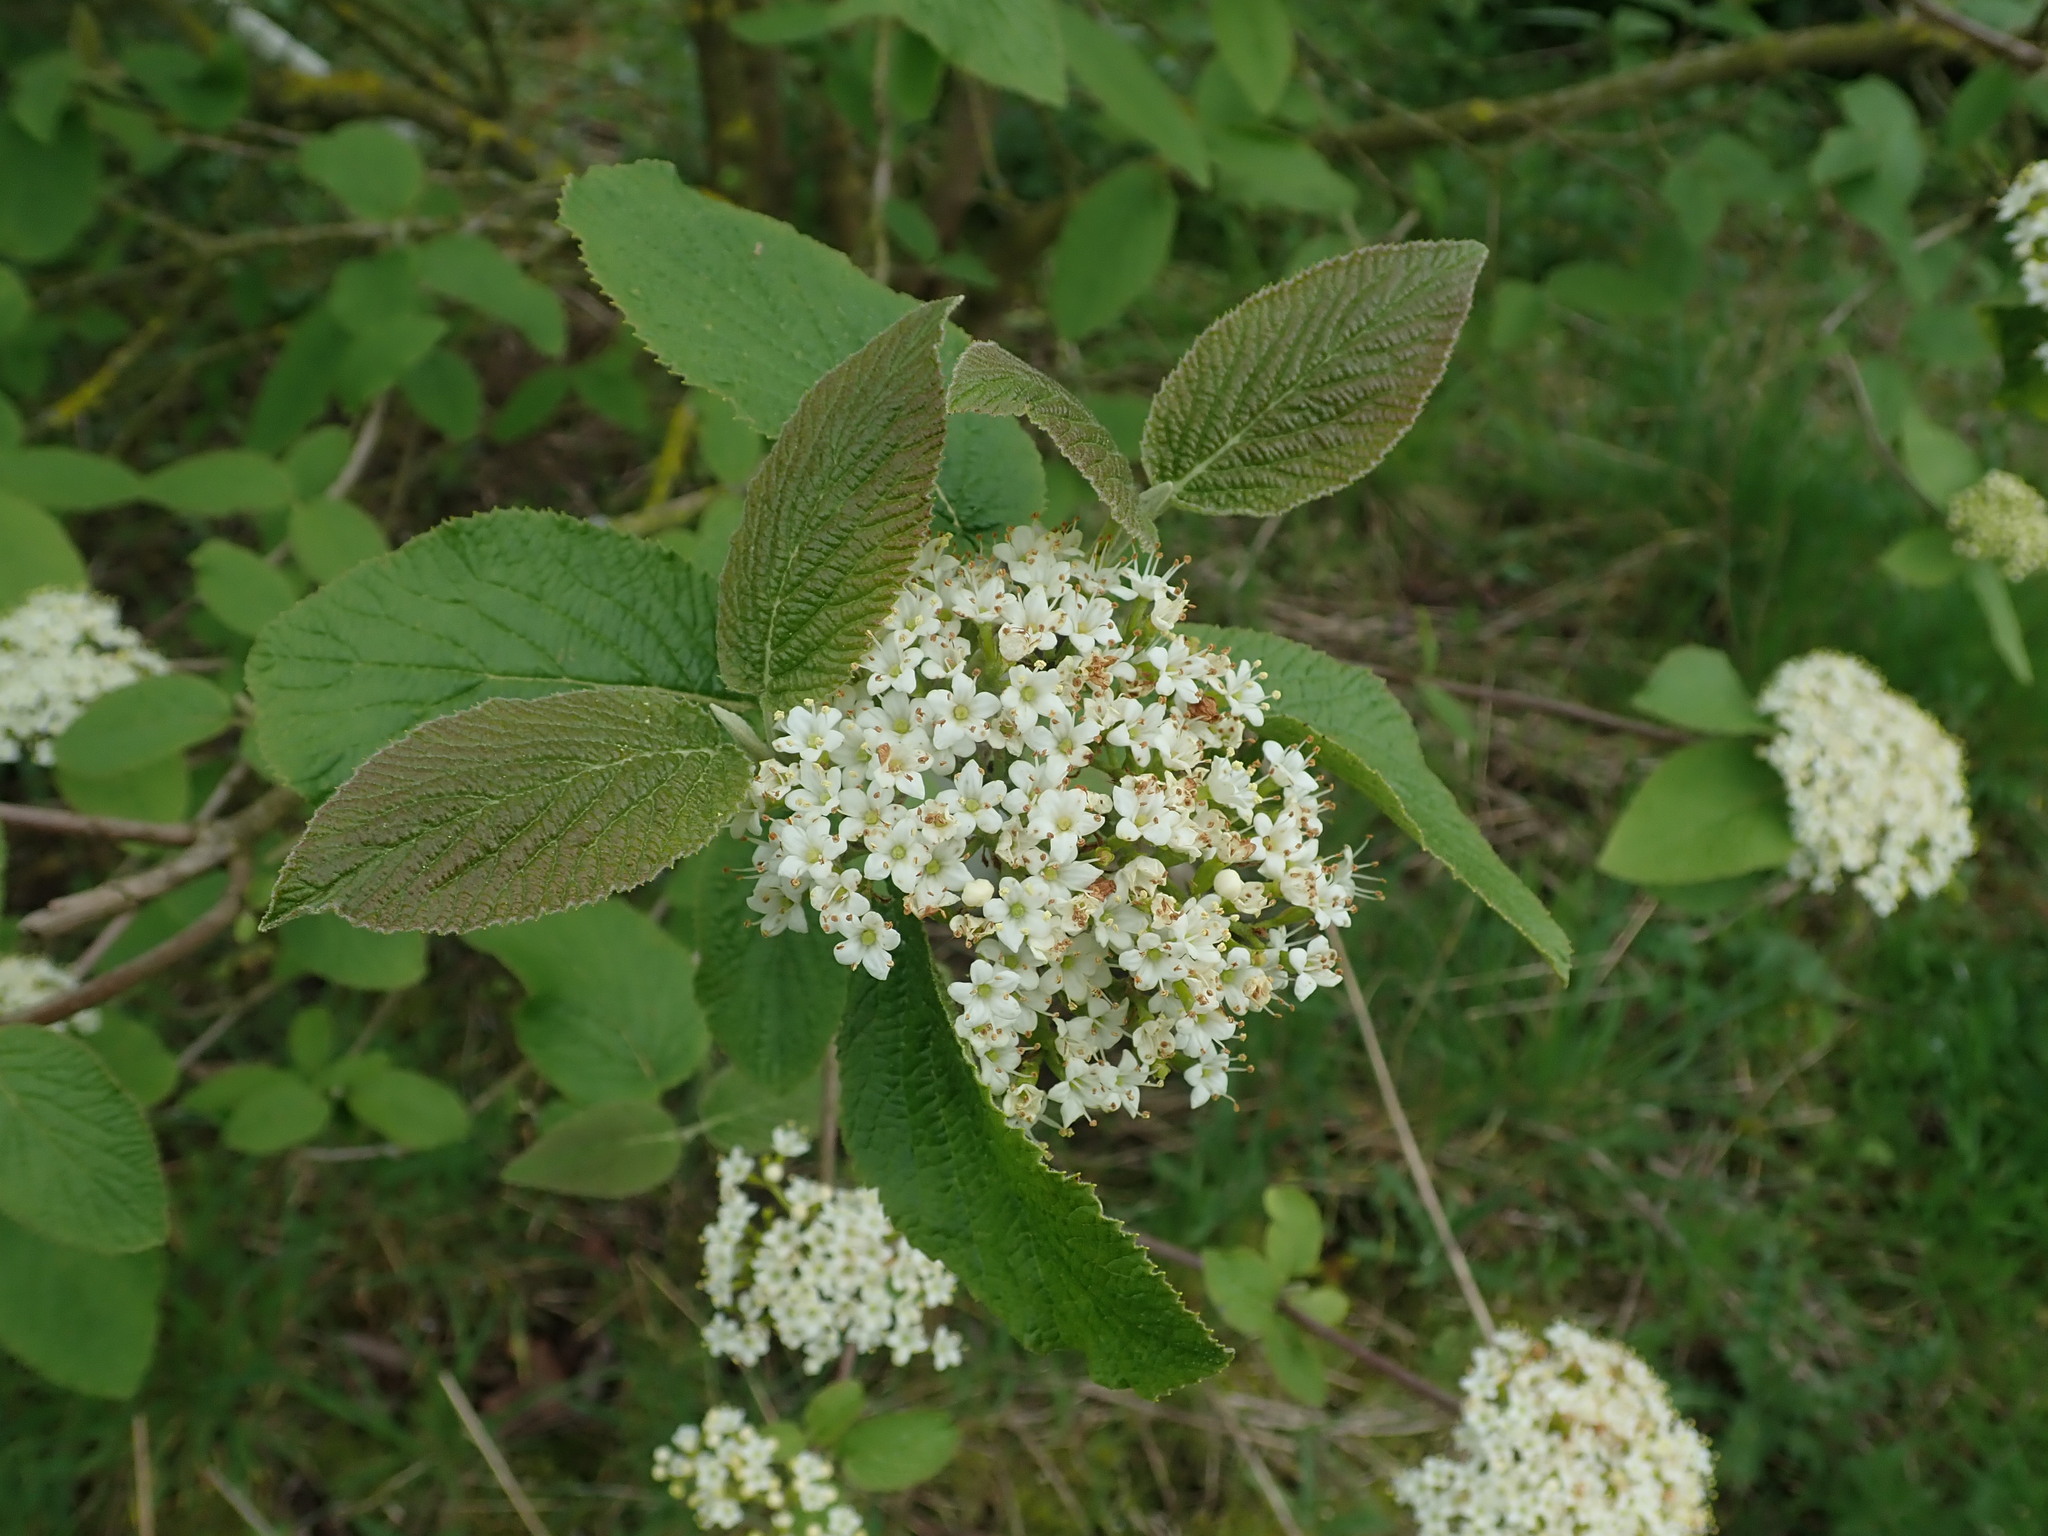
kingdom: Plantae
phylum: Tracheophyta
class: Magnoliopsida
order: Dipsacales
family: Viburnaceae
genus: Viburnum
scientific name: Viburnum lantana
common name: Wayfaring tree
